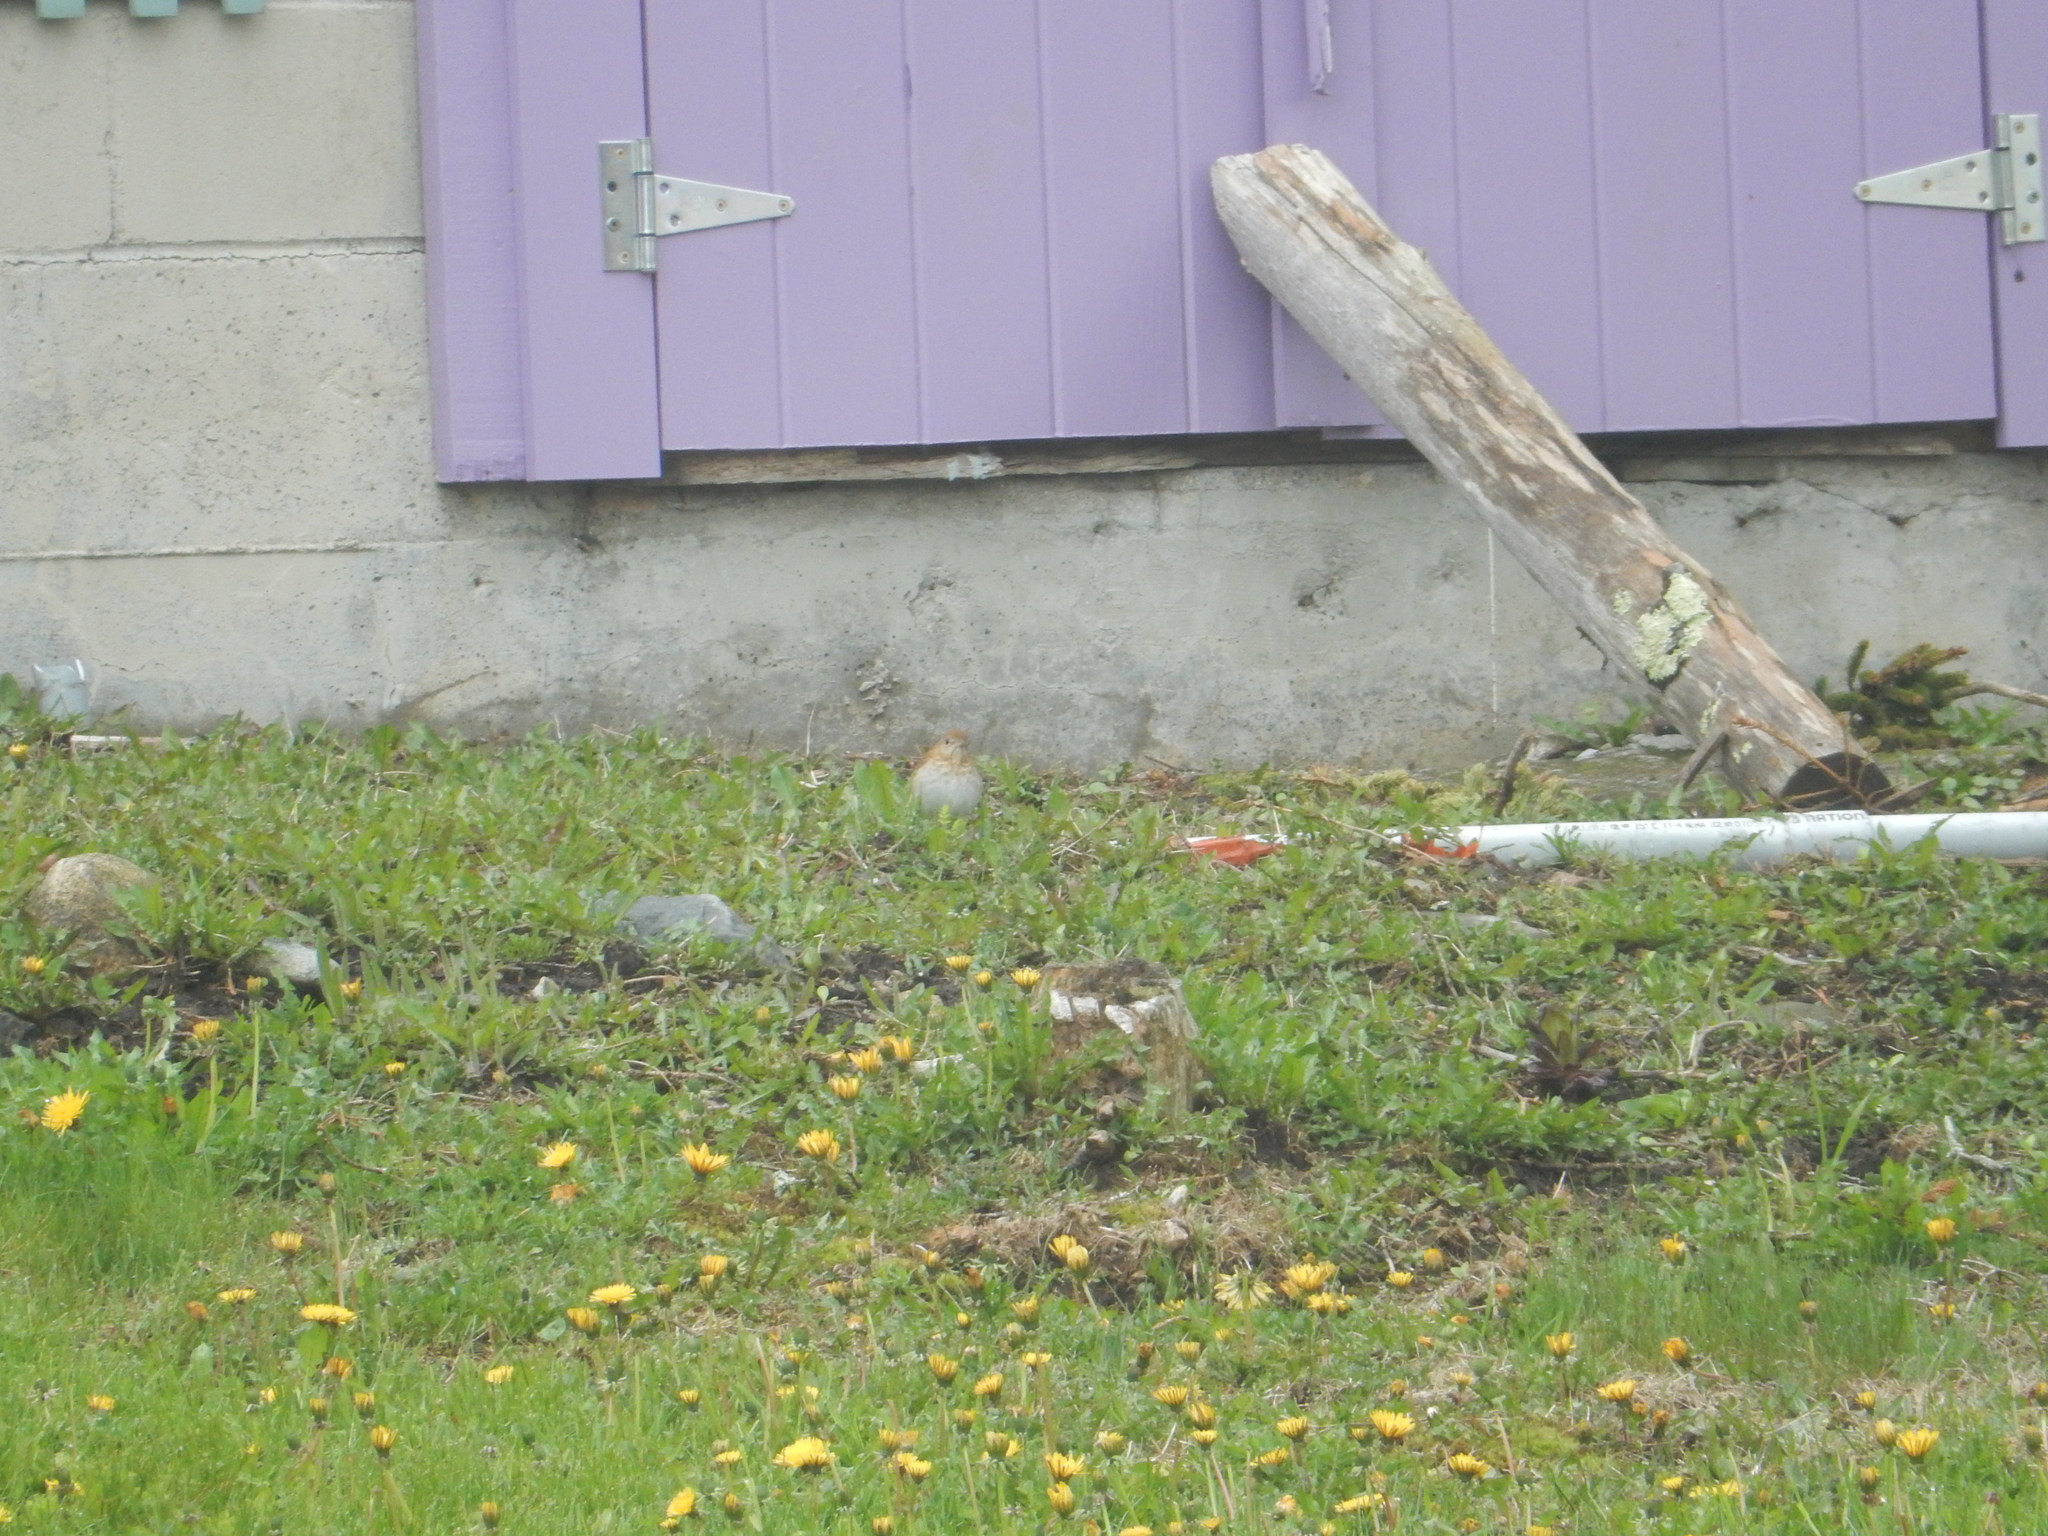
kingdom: Animalia
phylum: Chordata
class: Aves
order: Passeriformes
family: Turdidae
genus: Catharus
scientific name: Catharus fuscescens
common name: Veery
